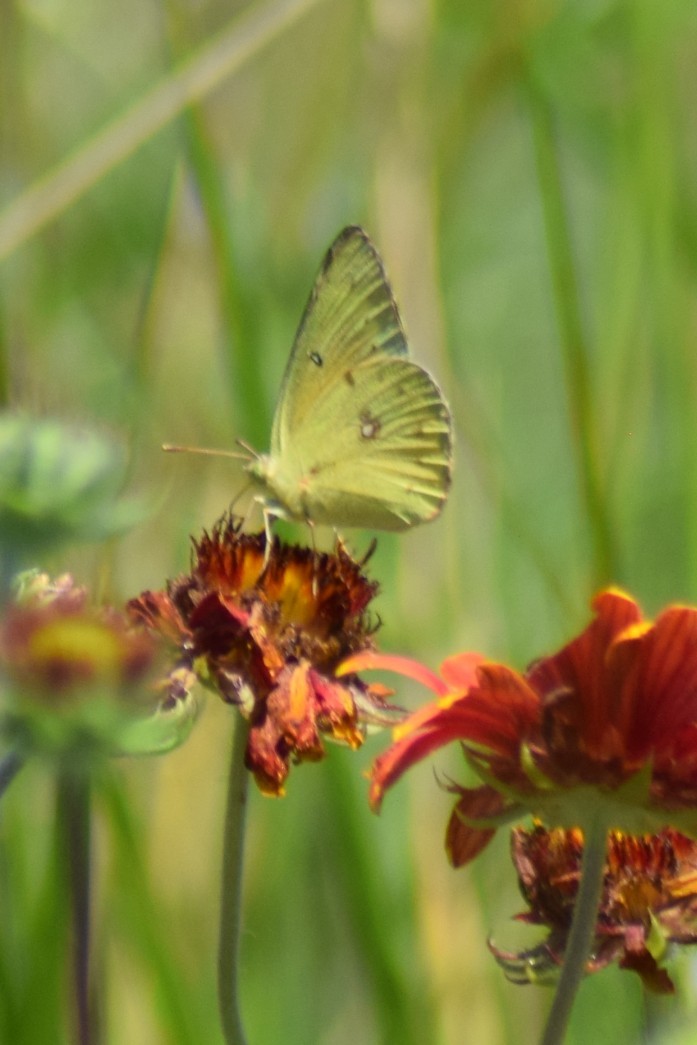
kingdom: Animalia
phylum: Arthropoda
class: Insecta
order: Lepidoptera
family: Pieridae
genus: Colias
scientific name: Colias eurytheme
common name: Alfalfa butterfly
